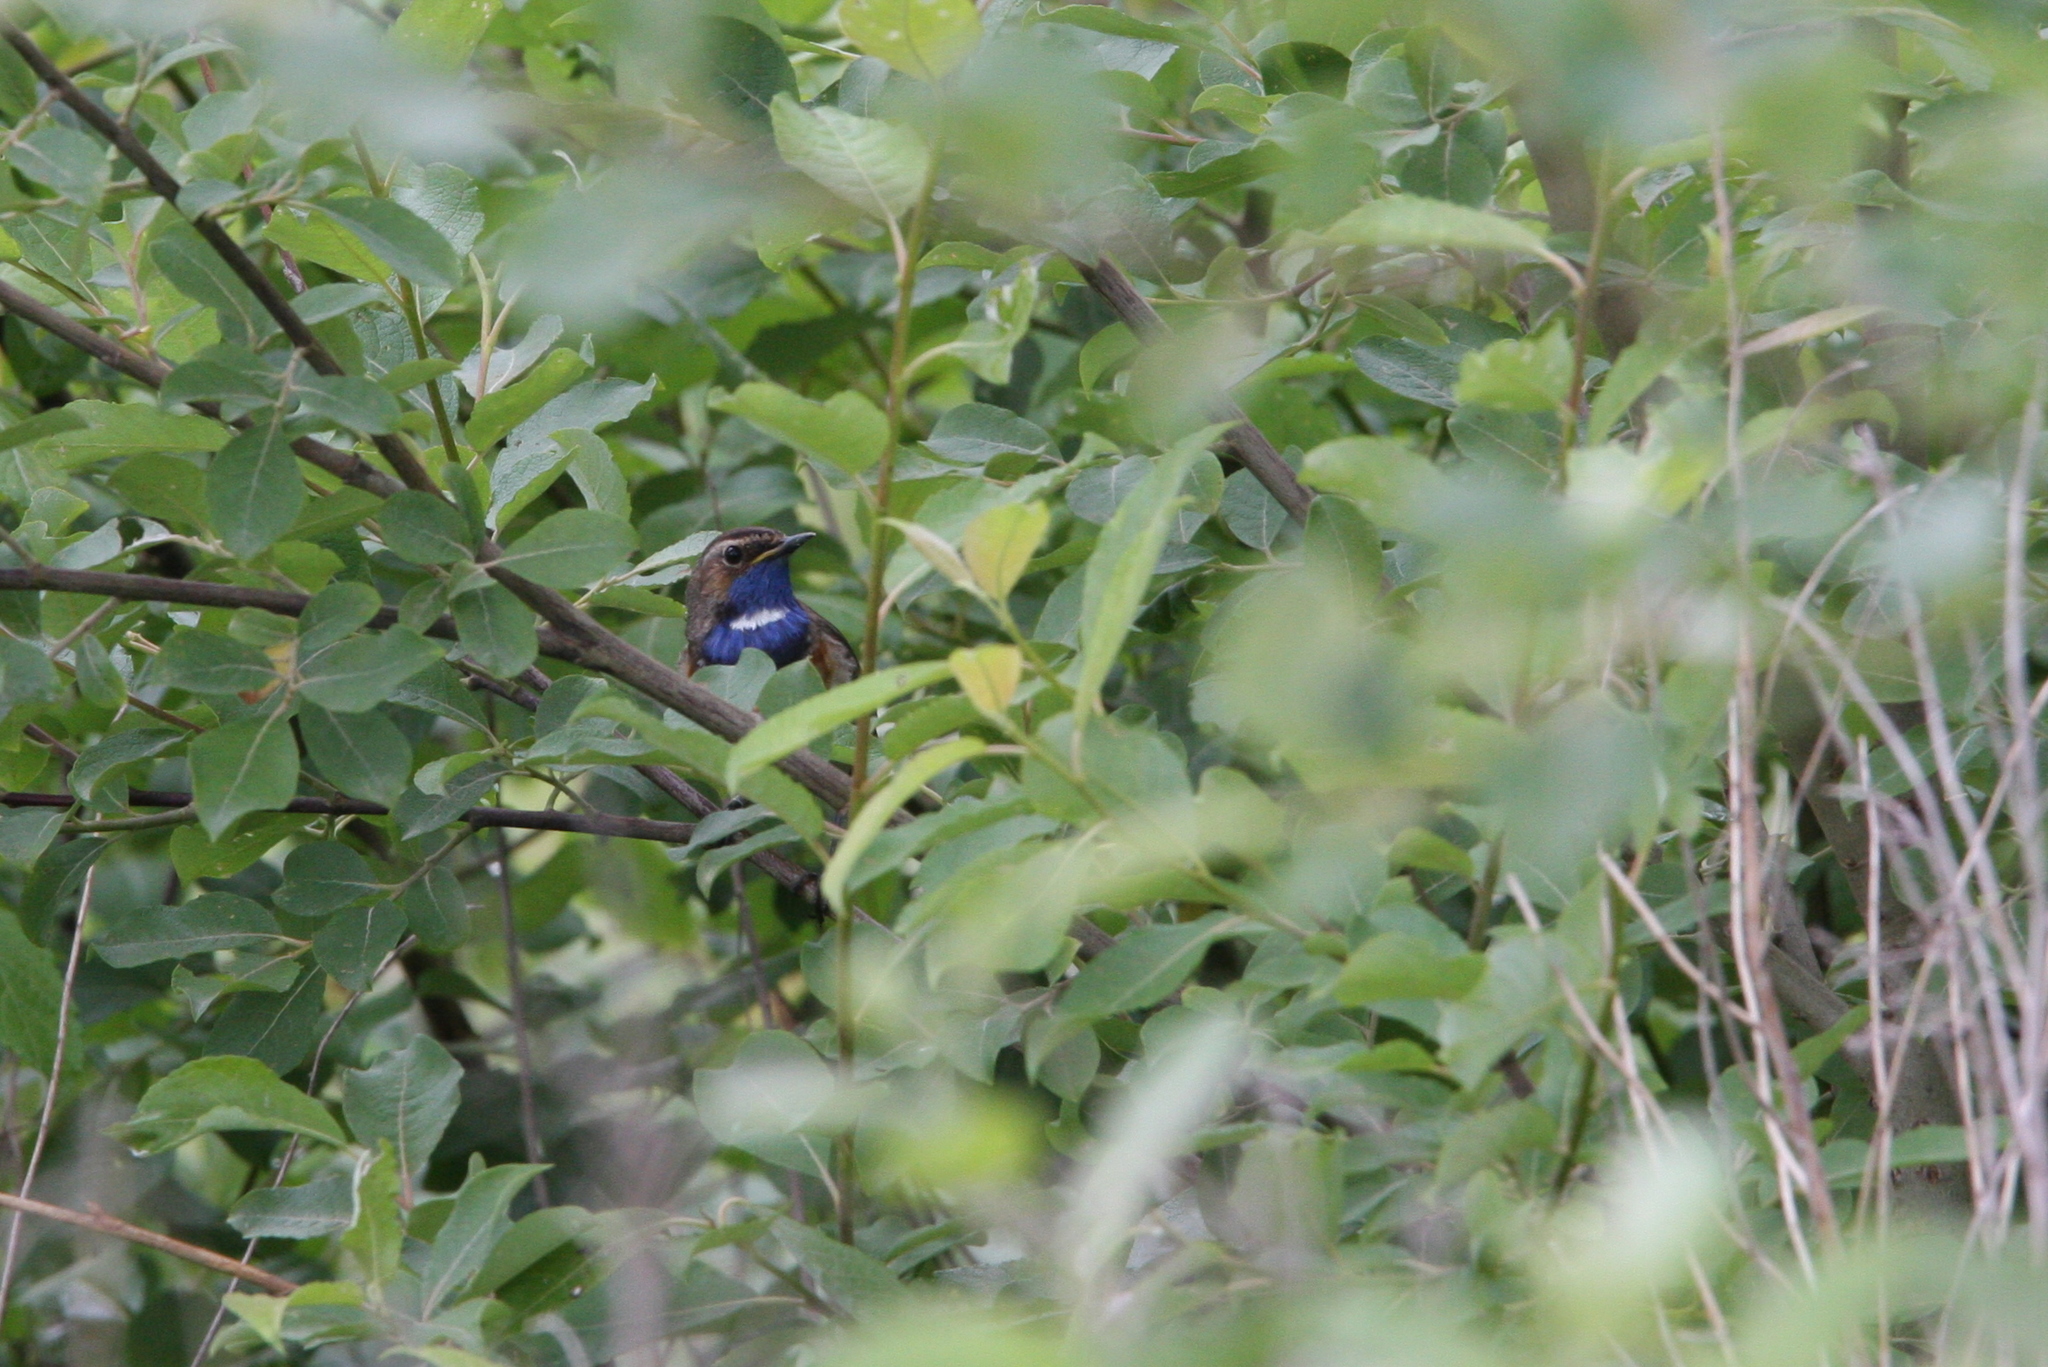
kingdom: Animalia
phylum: Chordata
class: Aves
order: Passeriformes
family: Muscicapidae
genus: Luscinia
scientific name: Luscinia svecica
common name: Bluethroat
